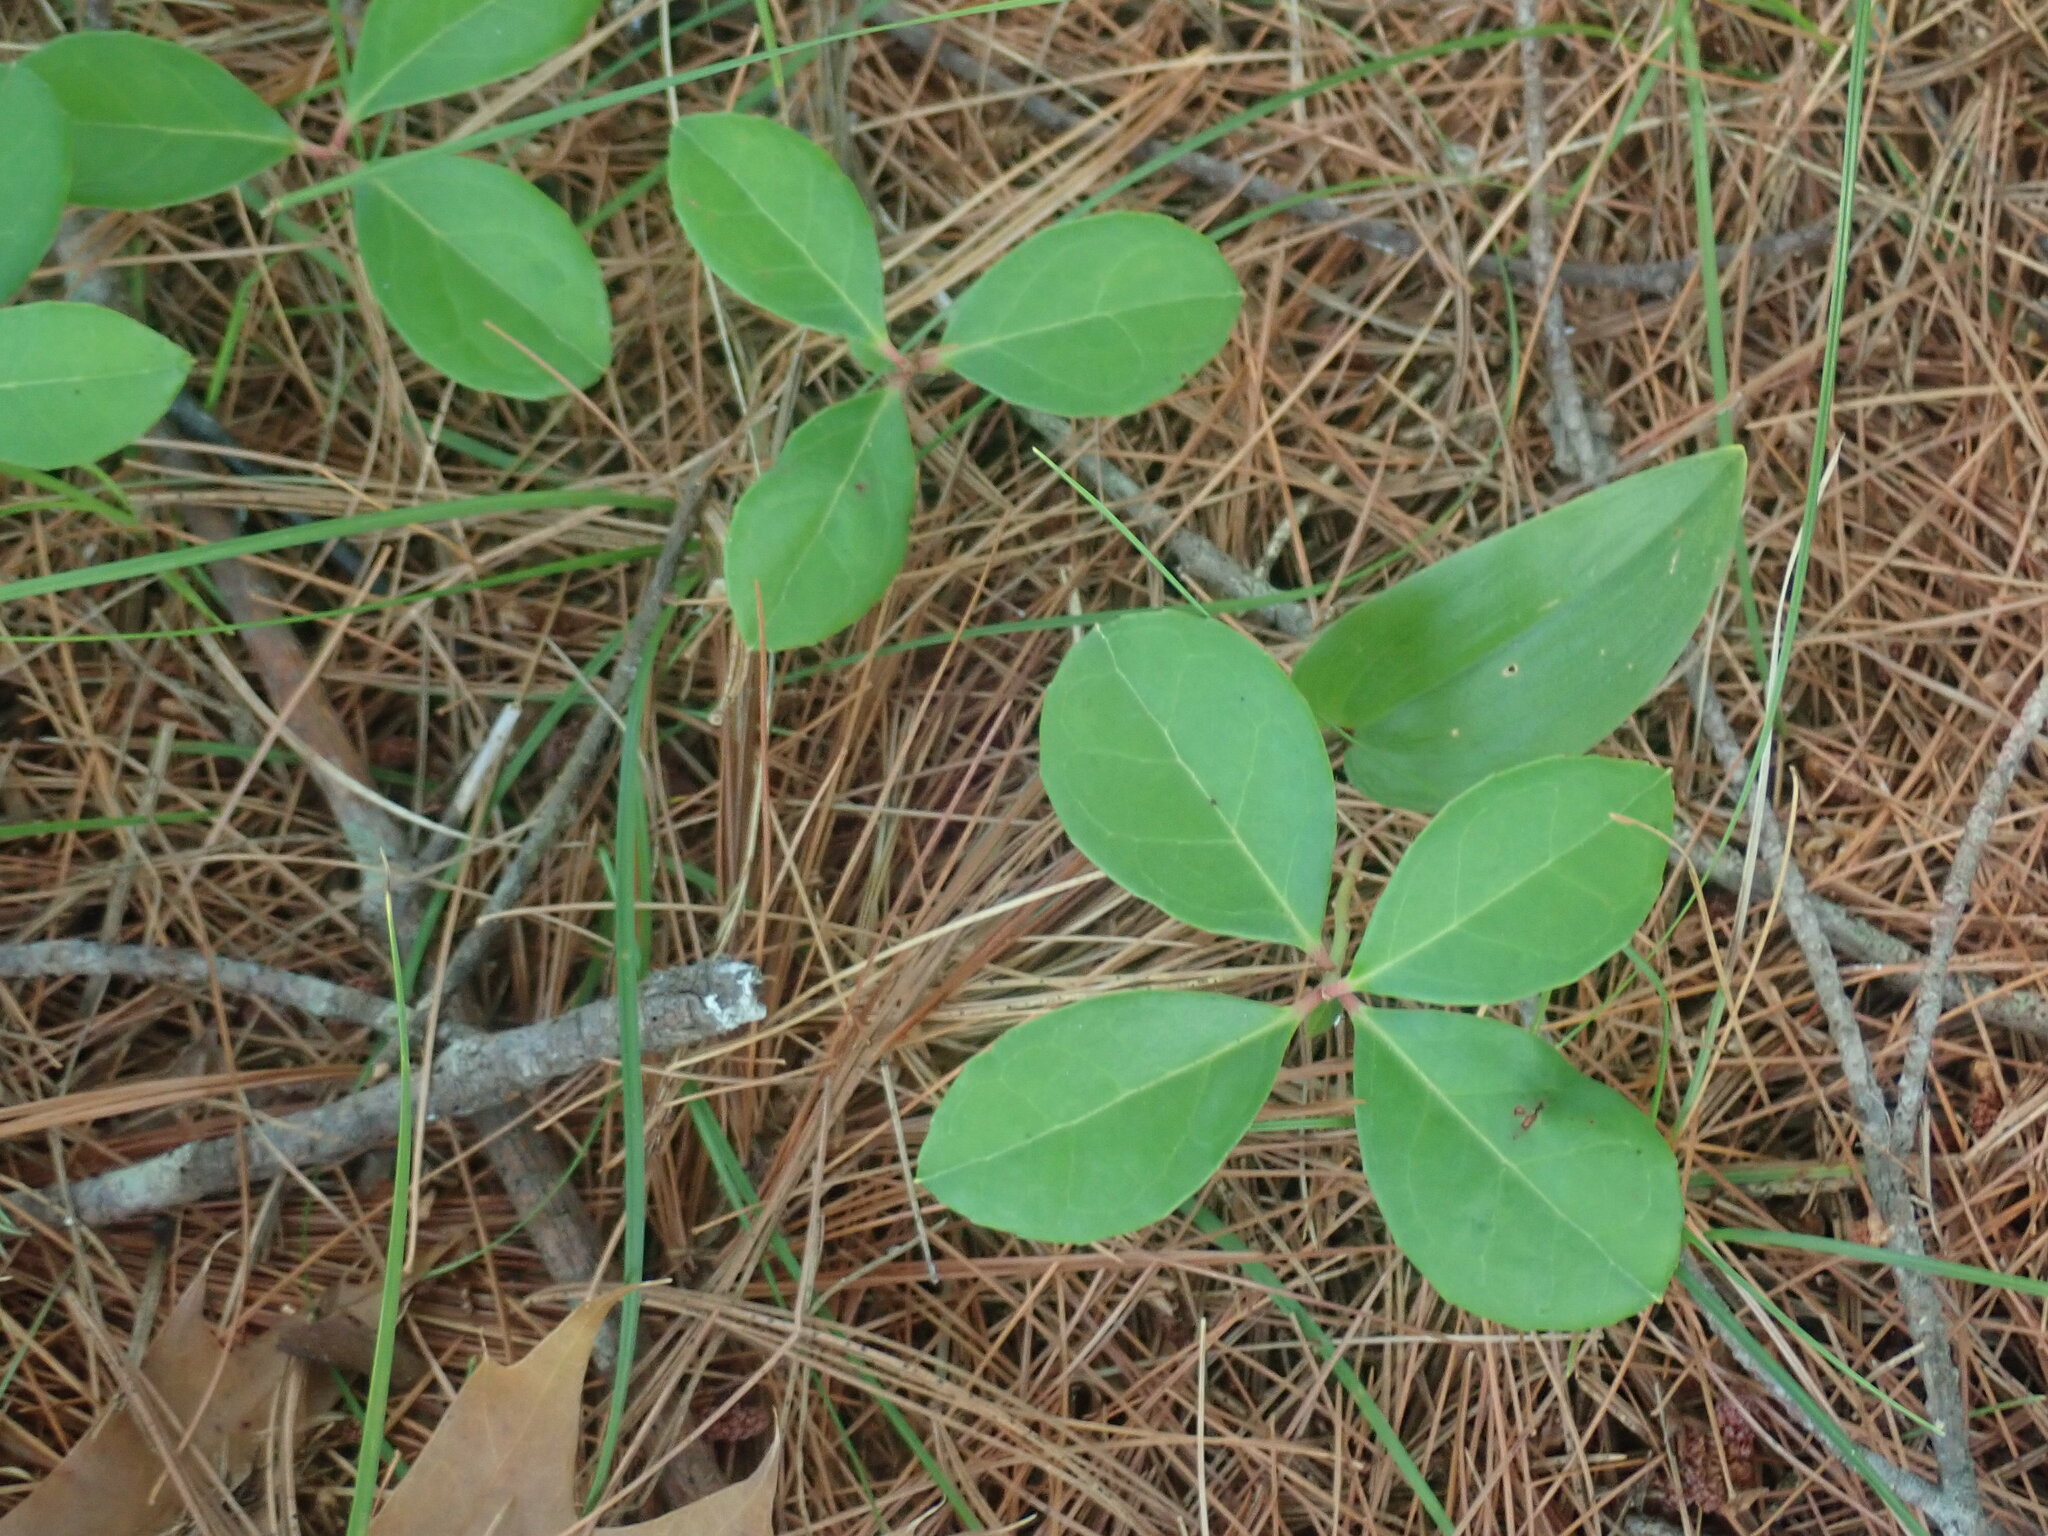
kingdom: Plantae
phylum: Tracheophyta
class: Magnoliopsida
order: Ericales
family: Ericaceae
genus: Gaultheria
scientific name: Gaultheria procumbens
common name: Checkerberry
